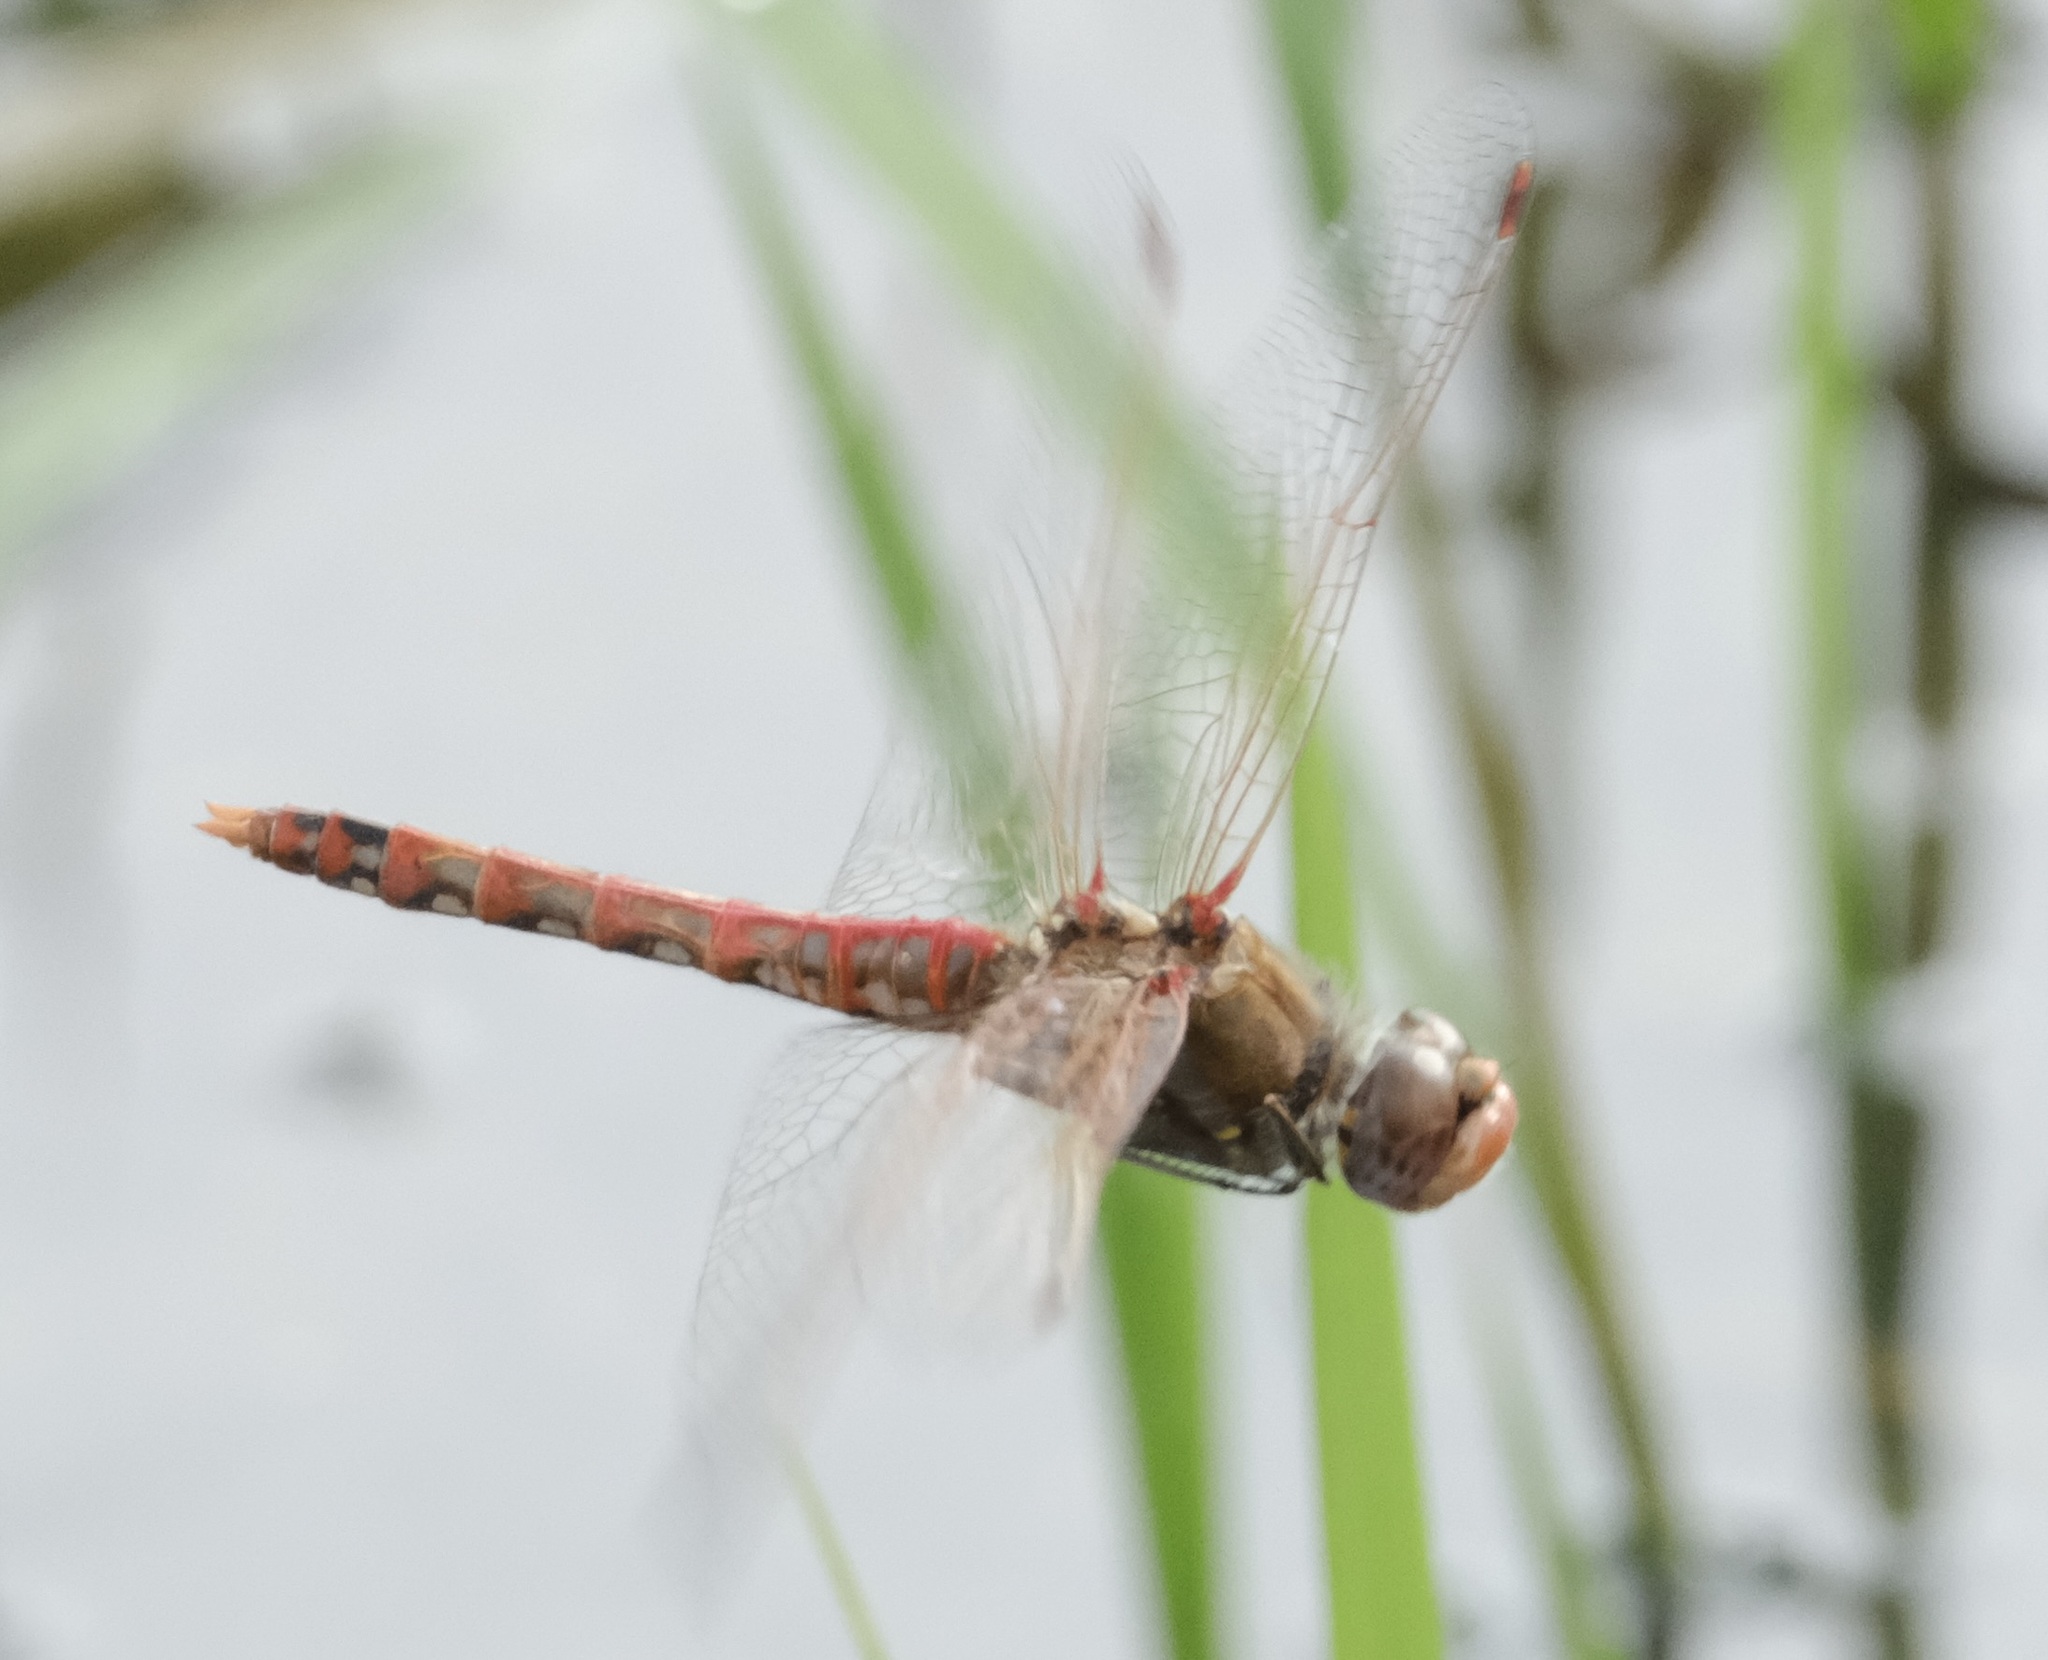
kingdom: Animalia
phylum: Arthropoda
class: Insecta
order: Odonata
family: Libellulidae
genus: Sympetrum
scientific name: Sympetrum corruptum
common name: Variegated meadowhawk
